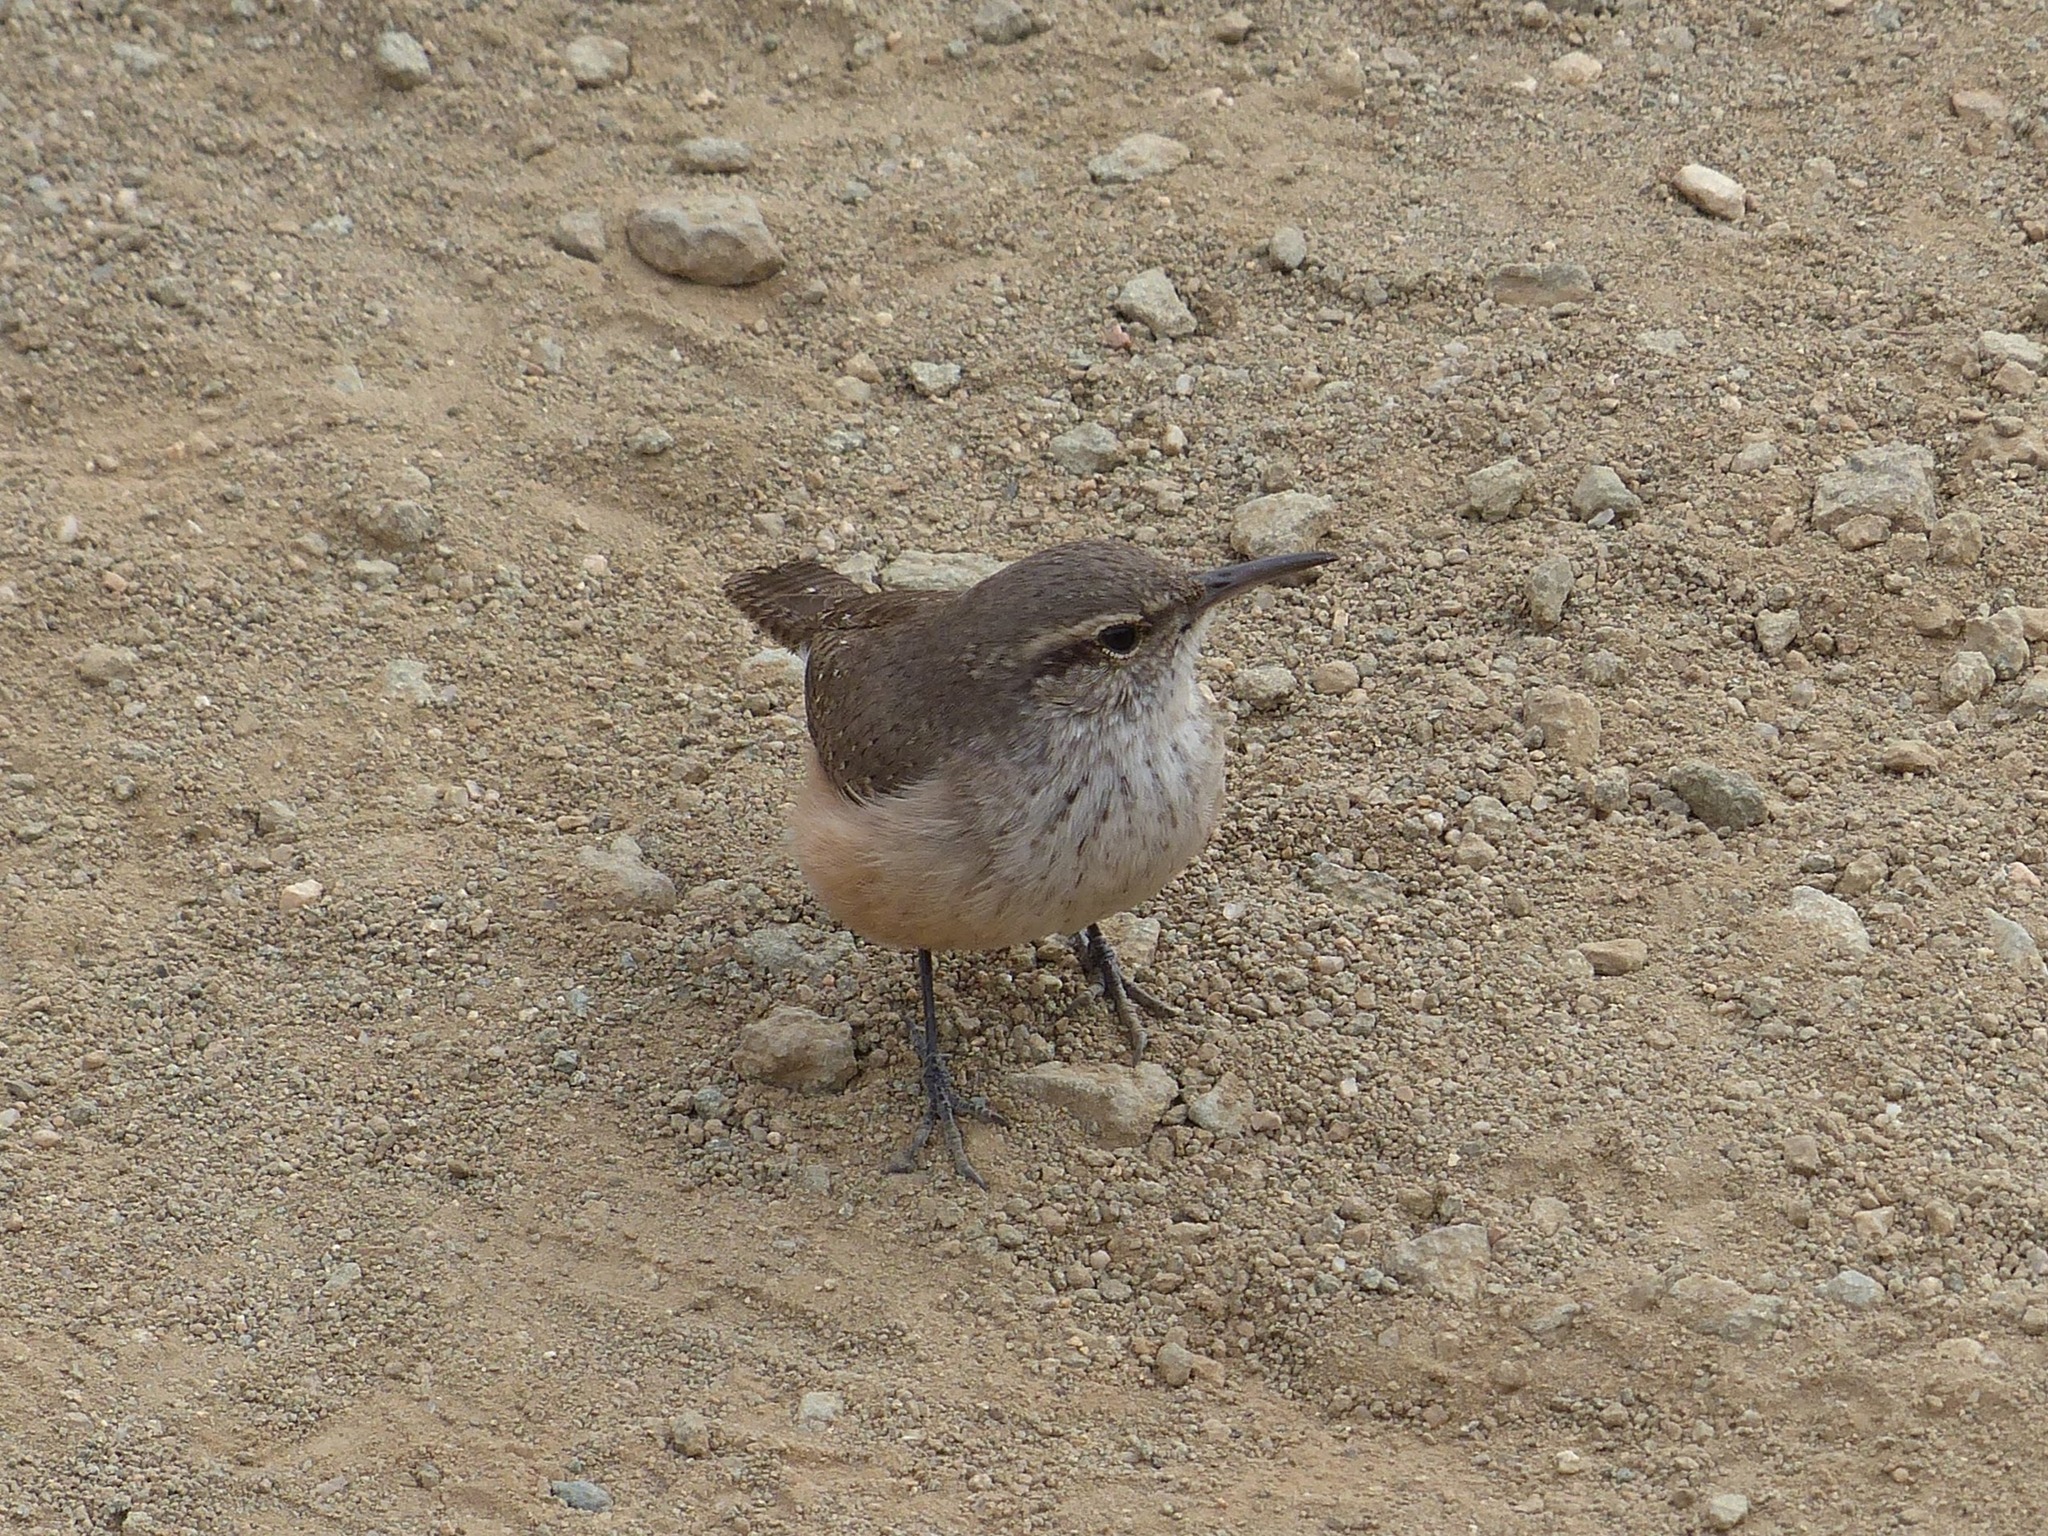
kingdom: Animalia
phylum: Chordata
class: Aves
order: Passeriformes
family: Troglodytidae
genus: Salpinctes
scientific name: Salpinctes obsoletus
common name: Rock wren
